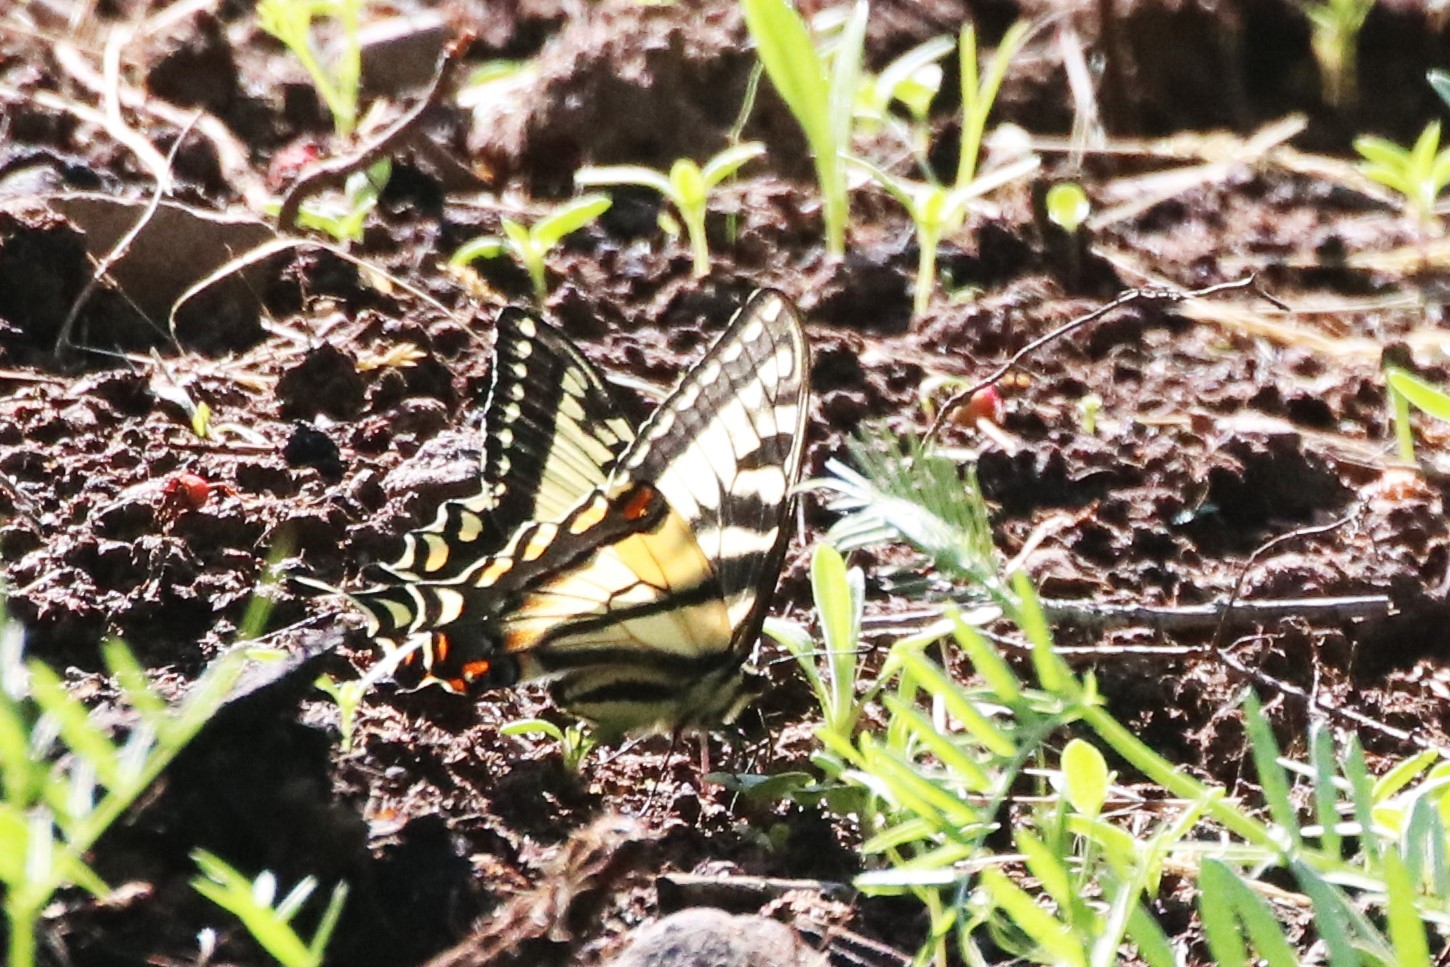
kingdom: Animalia
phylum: Arthropoda
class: Insecta
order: Lepidoptera
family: Papilionidae
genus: Papilio
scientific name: Papilio canadensis
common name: Canadian tiger swallowtail
